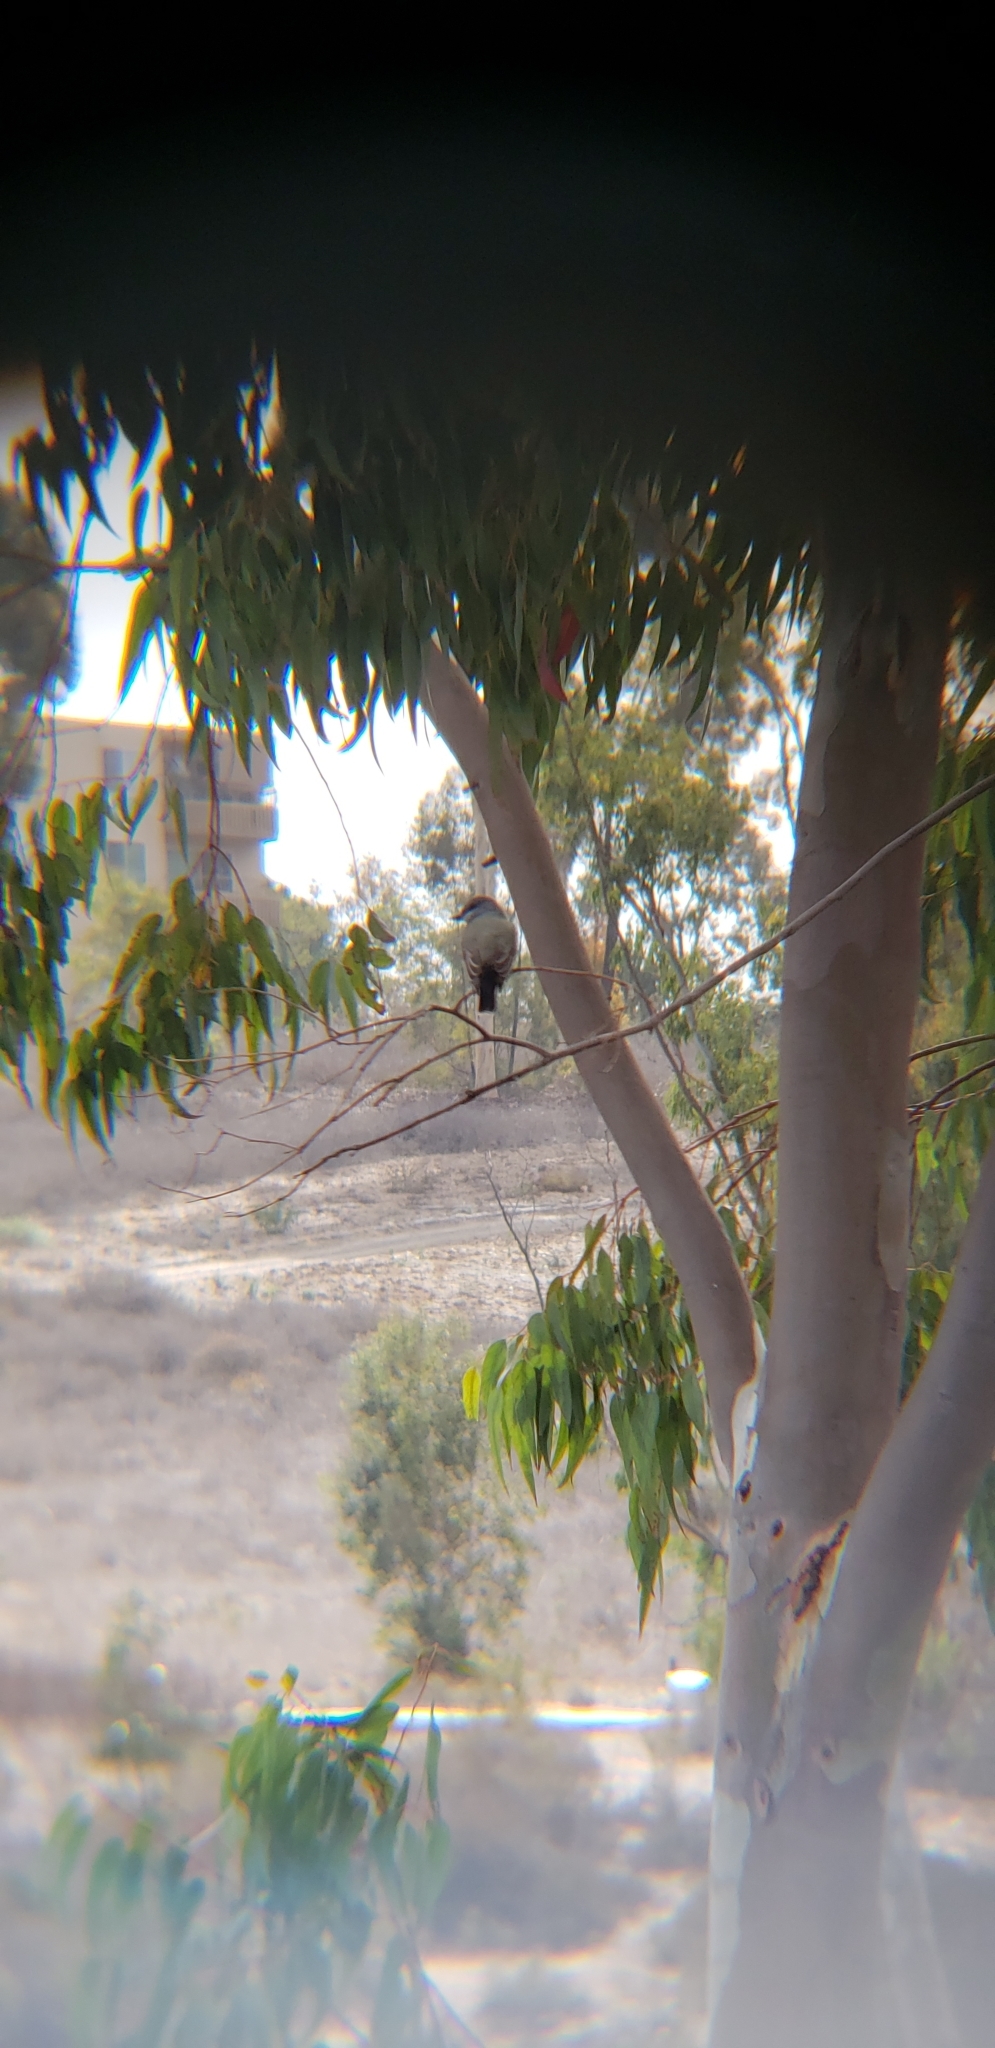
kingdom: Animalia
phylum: Chordata
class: Aves
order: Passeriformes
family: Tyrannidae
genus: Tyrannus
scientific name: Tyrannus vociferans
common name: Cassin's kingbird
